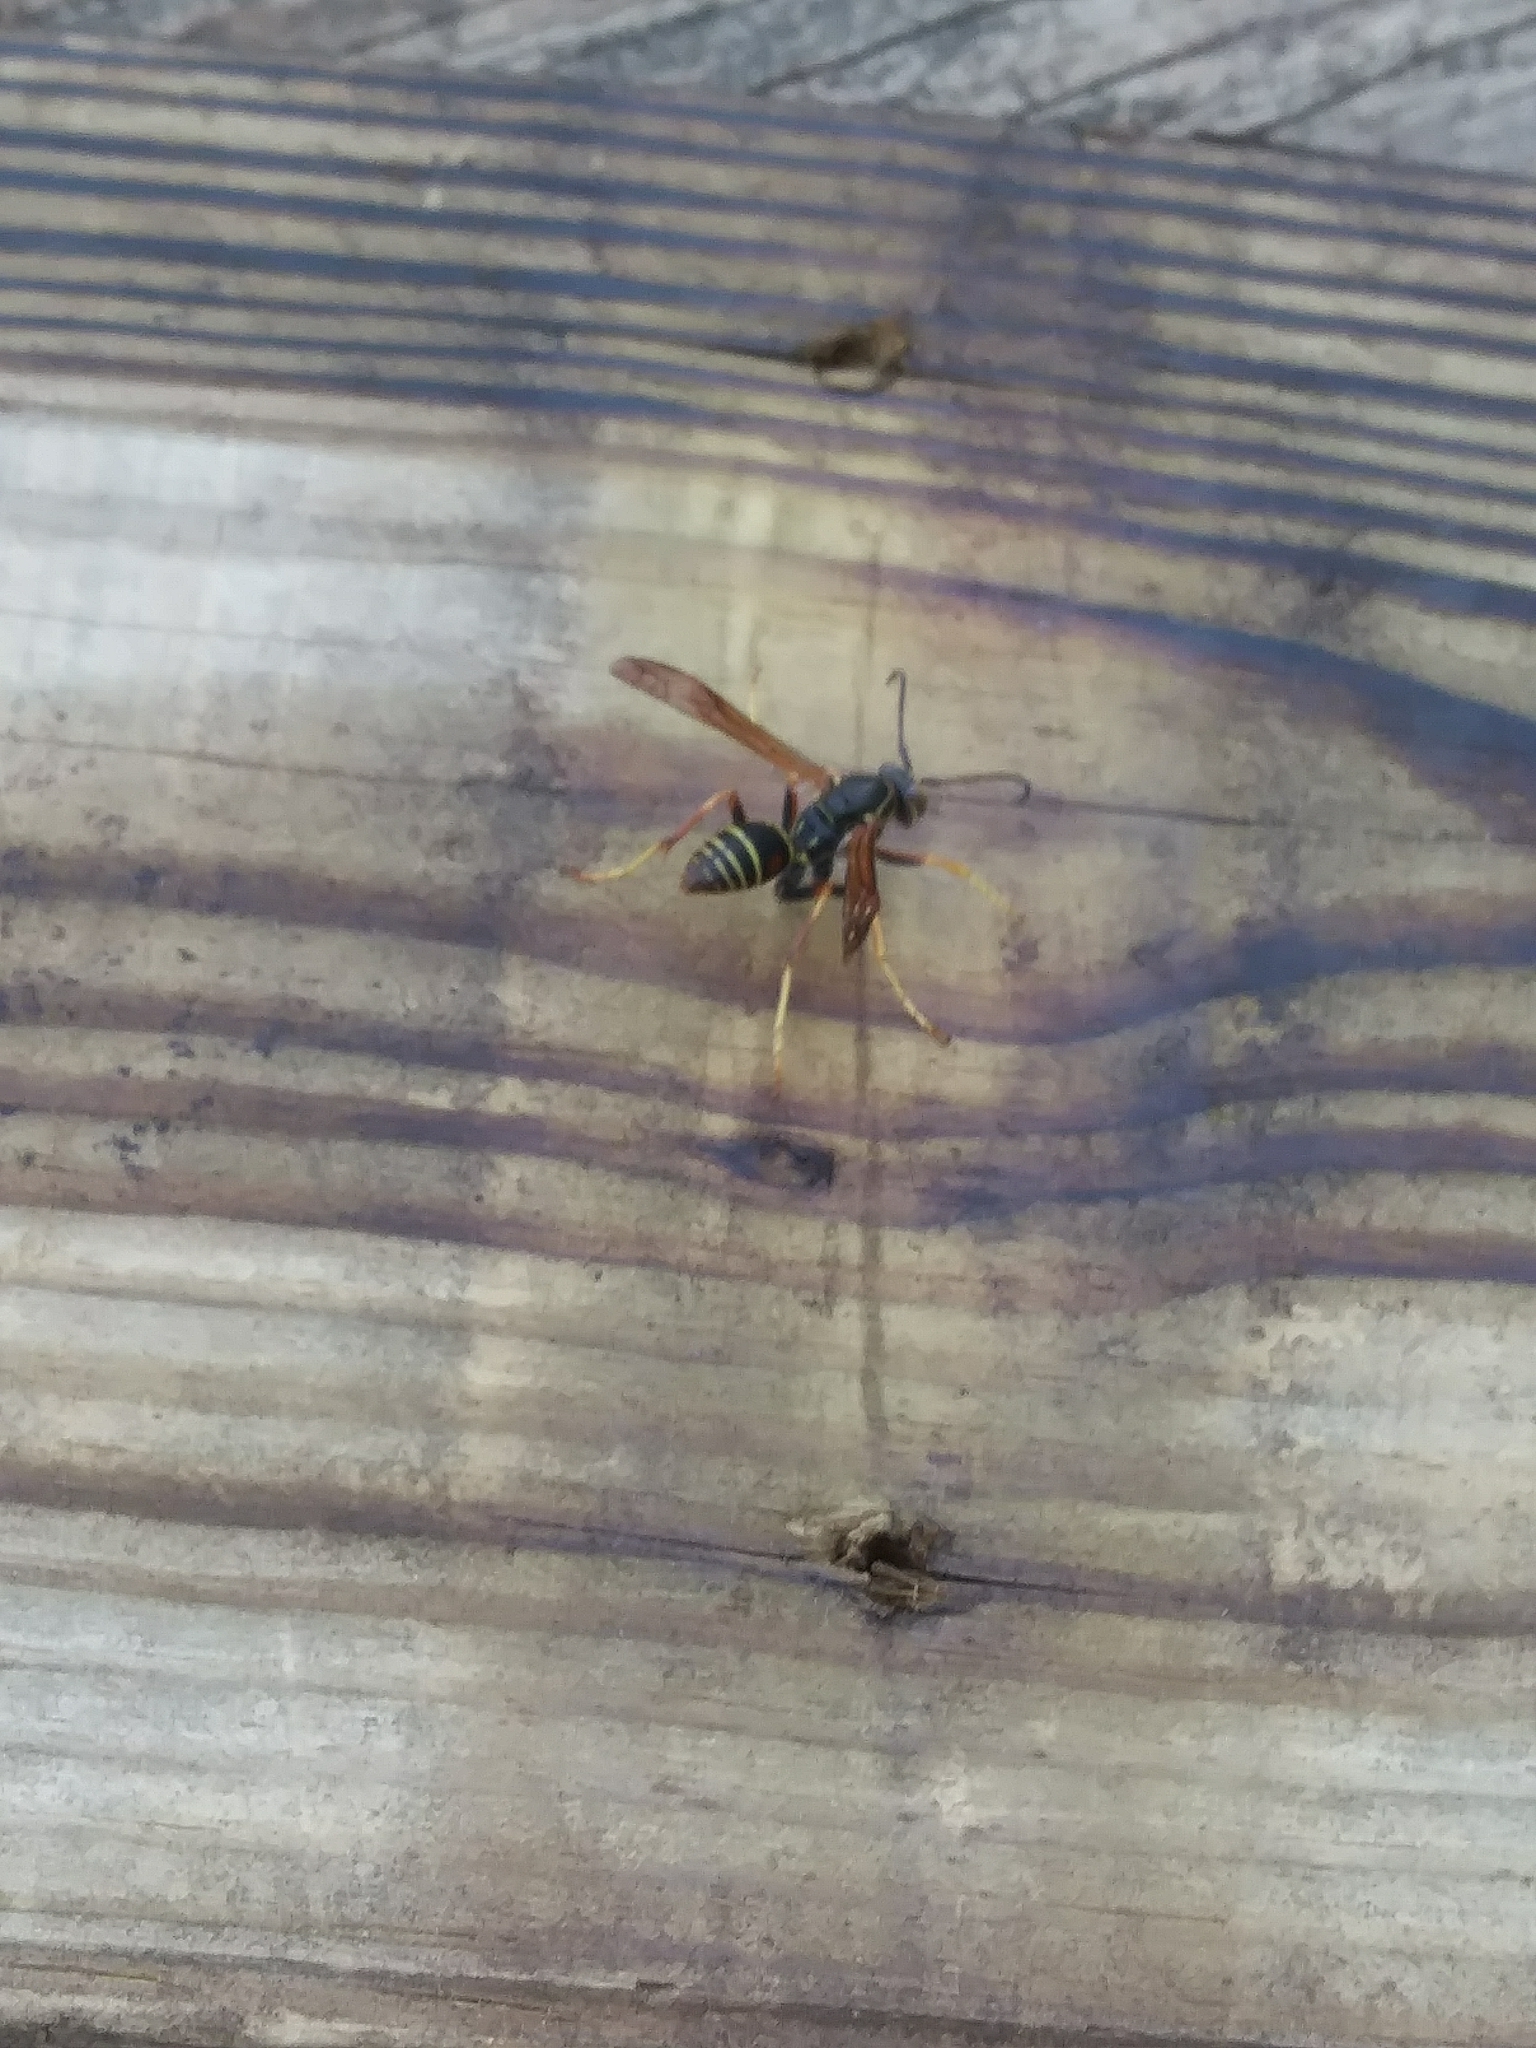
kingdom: Animalia
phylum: Arthropoda
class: Insecta
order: Hymenoptera
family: Eumenidae
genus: Polistes
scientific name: Polistes fuscatus
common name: Dark paper wasp
